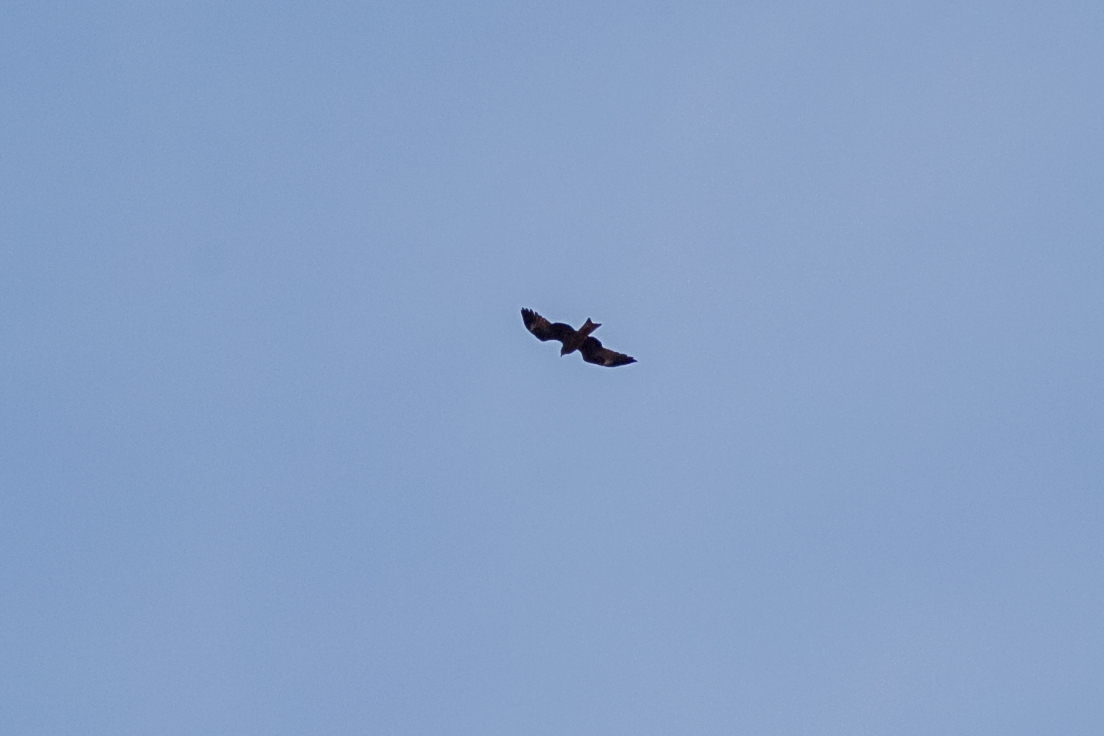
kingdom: Animalia
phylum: Chordata
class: Aves
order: Accipitriformes
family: Accipitridae
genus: Milvus
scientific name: Milvus migrans
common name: Black kite
